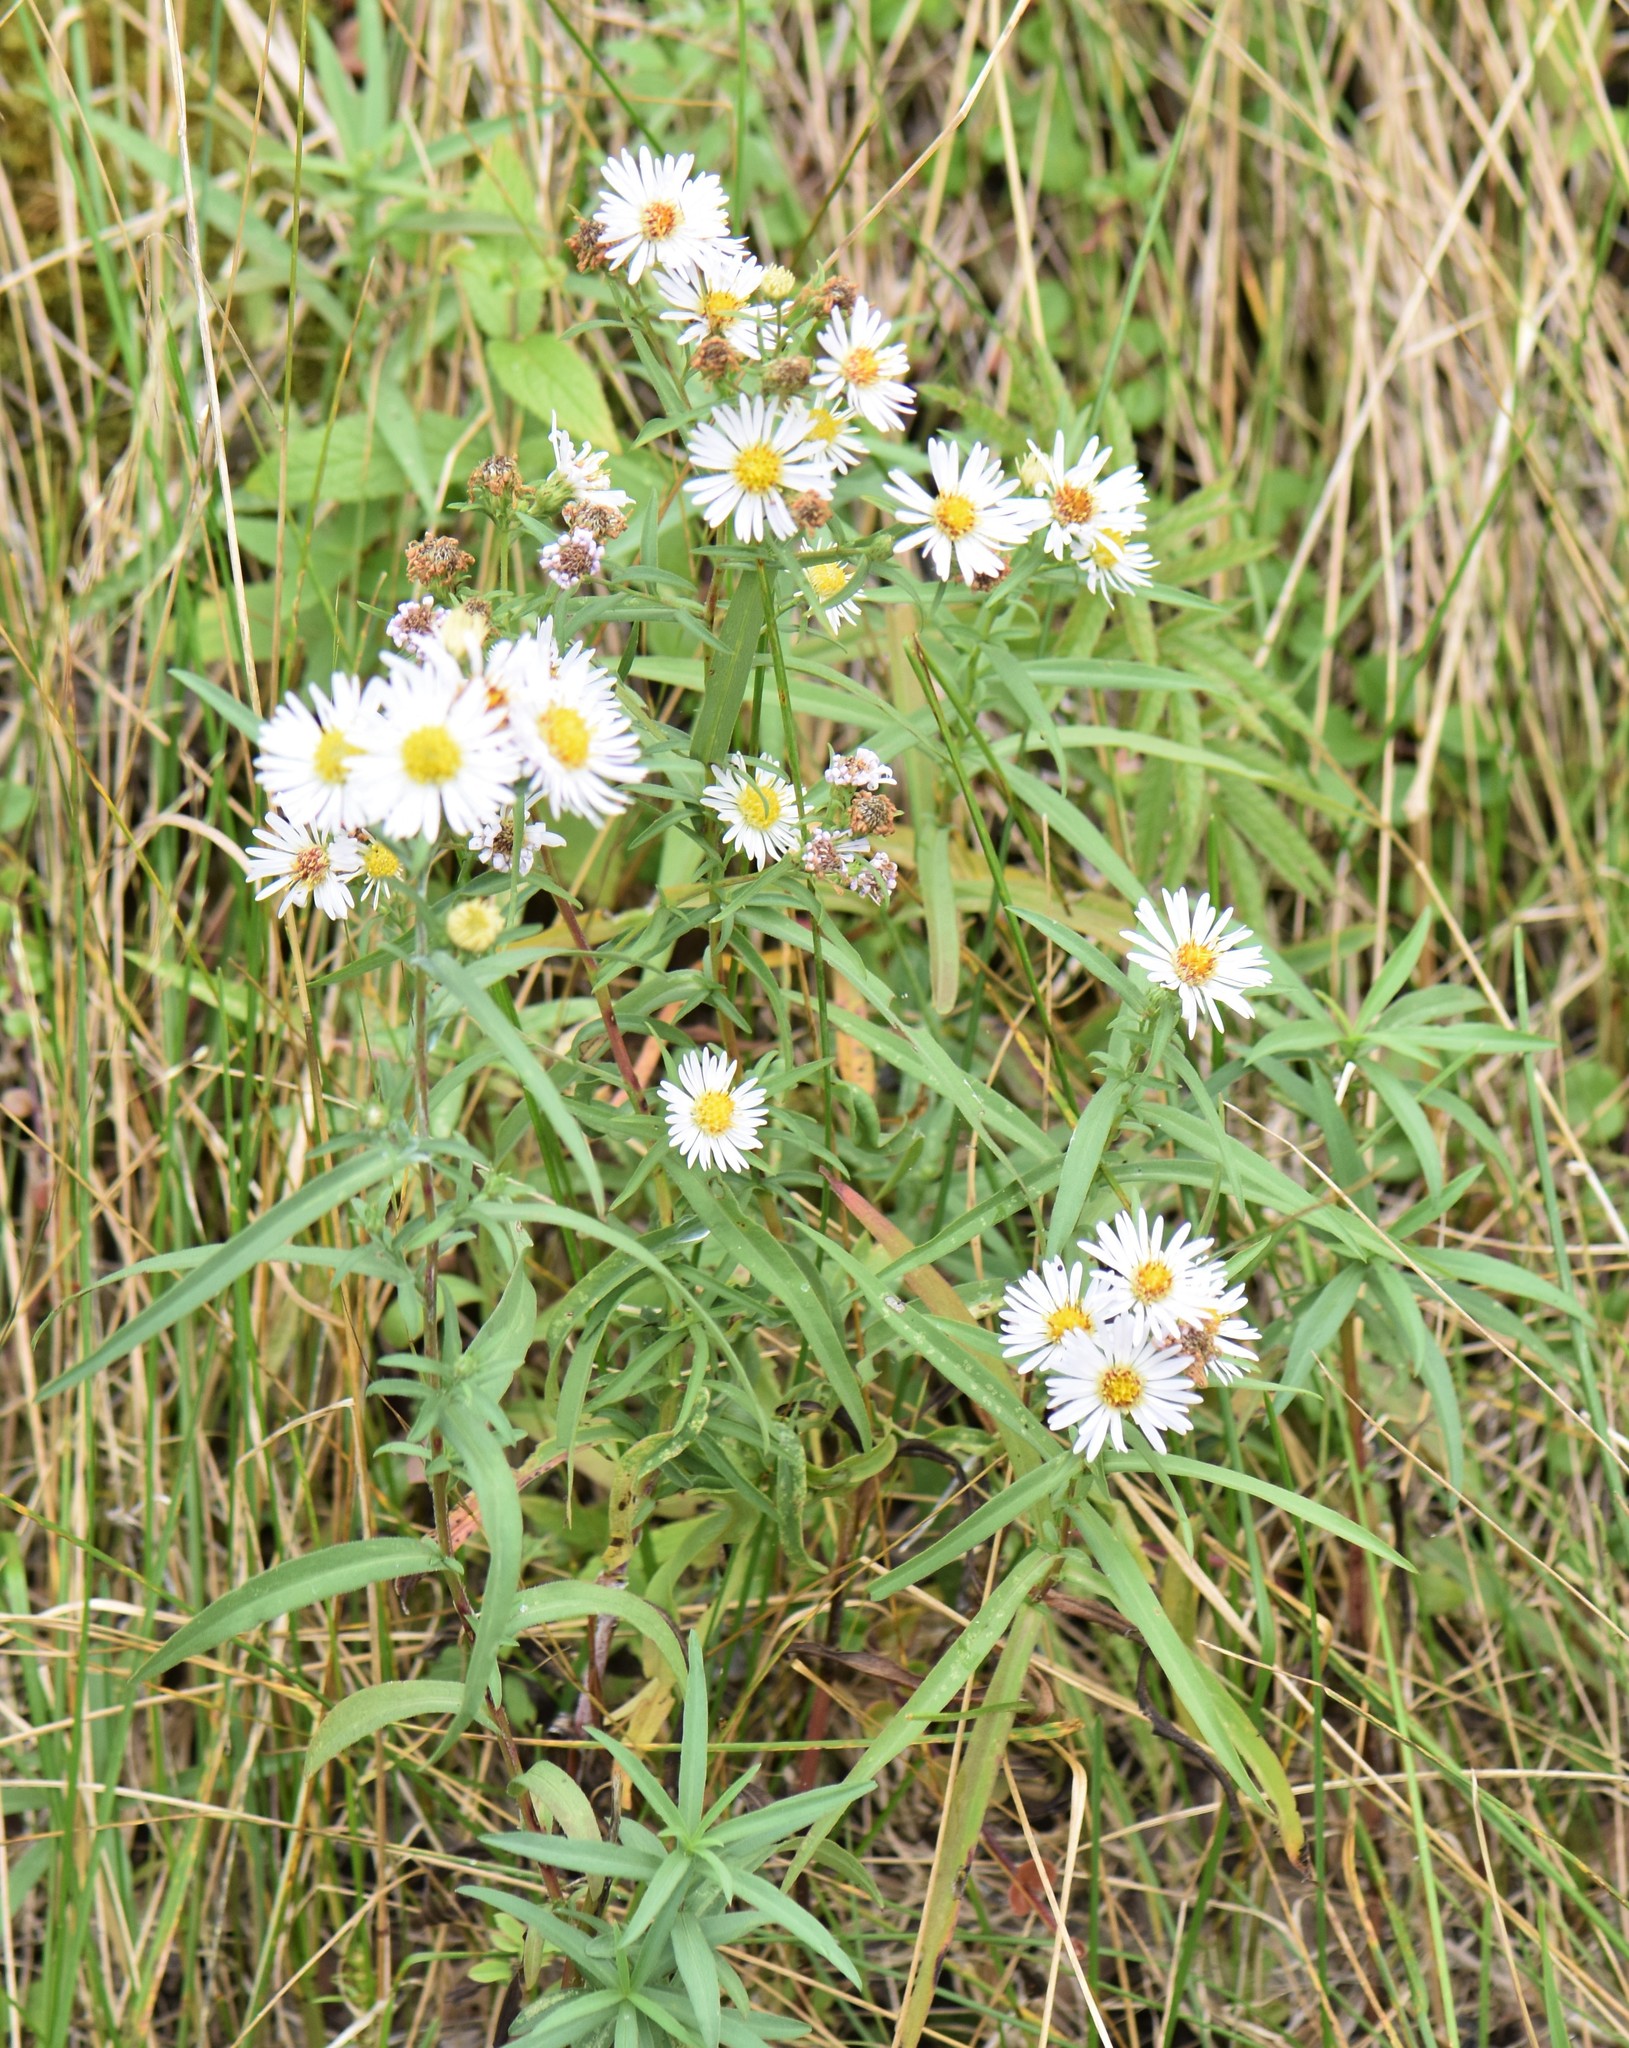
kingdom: Plantae
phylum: Tracheophyta
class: Magnoliopsida
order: Asterales
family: Asteraceae
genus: Symphyotrichum
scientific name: Symphyotrichum lanceolatum
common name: Panicled aster
